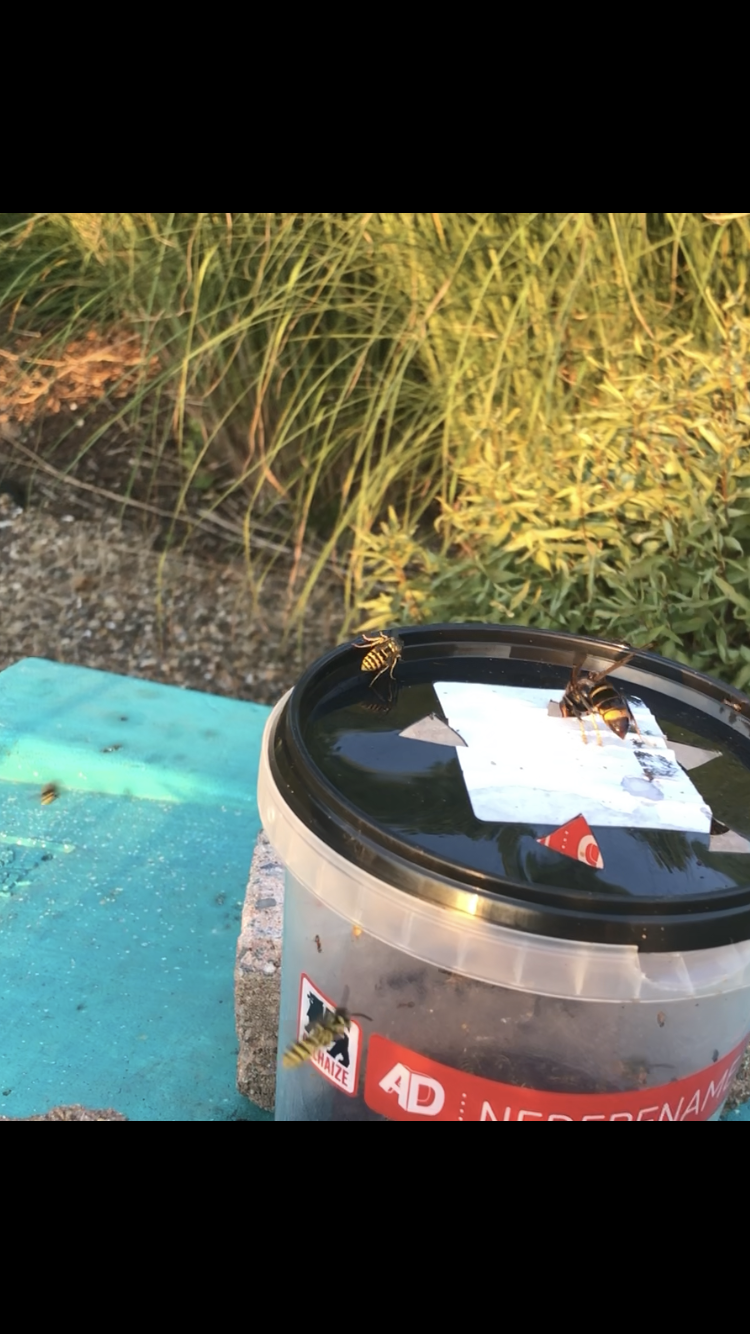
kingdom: Animalia
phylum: Arthropoda
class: Insecta
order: Hymenoptera
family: Vespidae
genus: Vespa
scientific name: Vespa velutina
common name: Asian hornet
